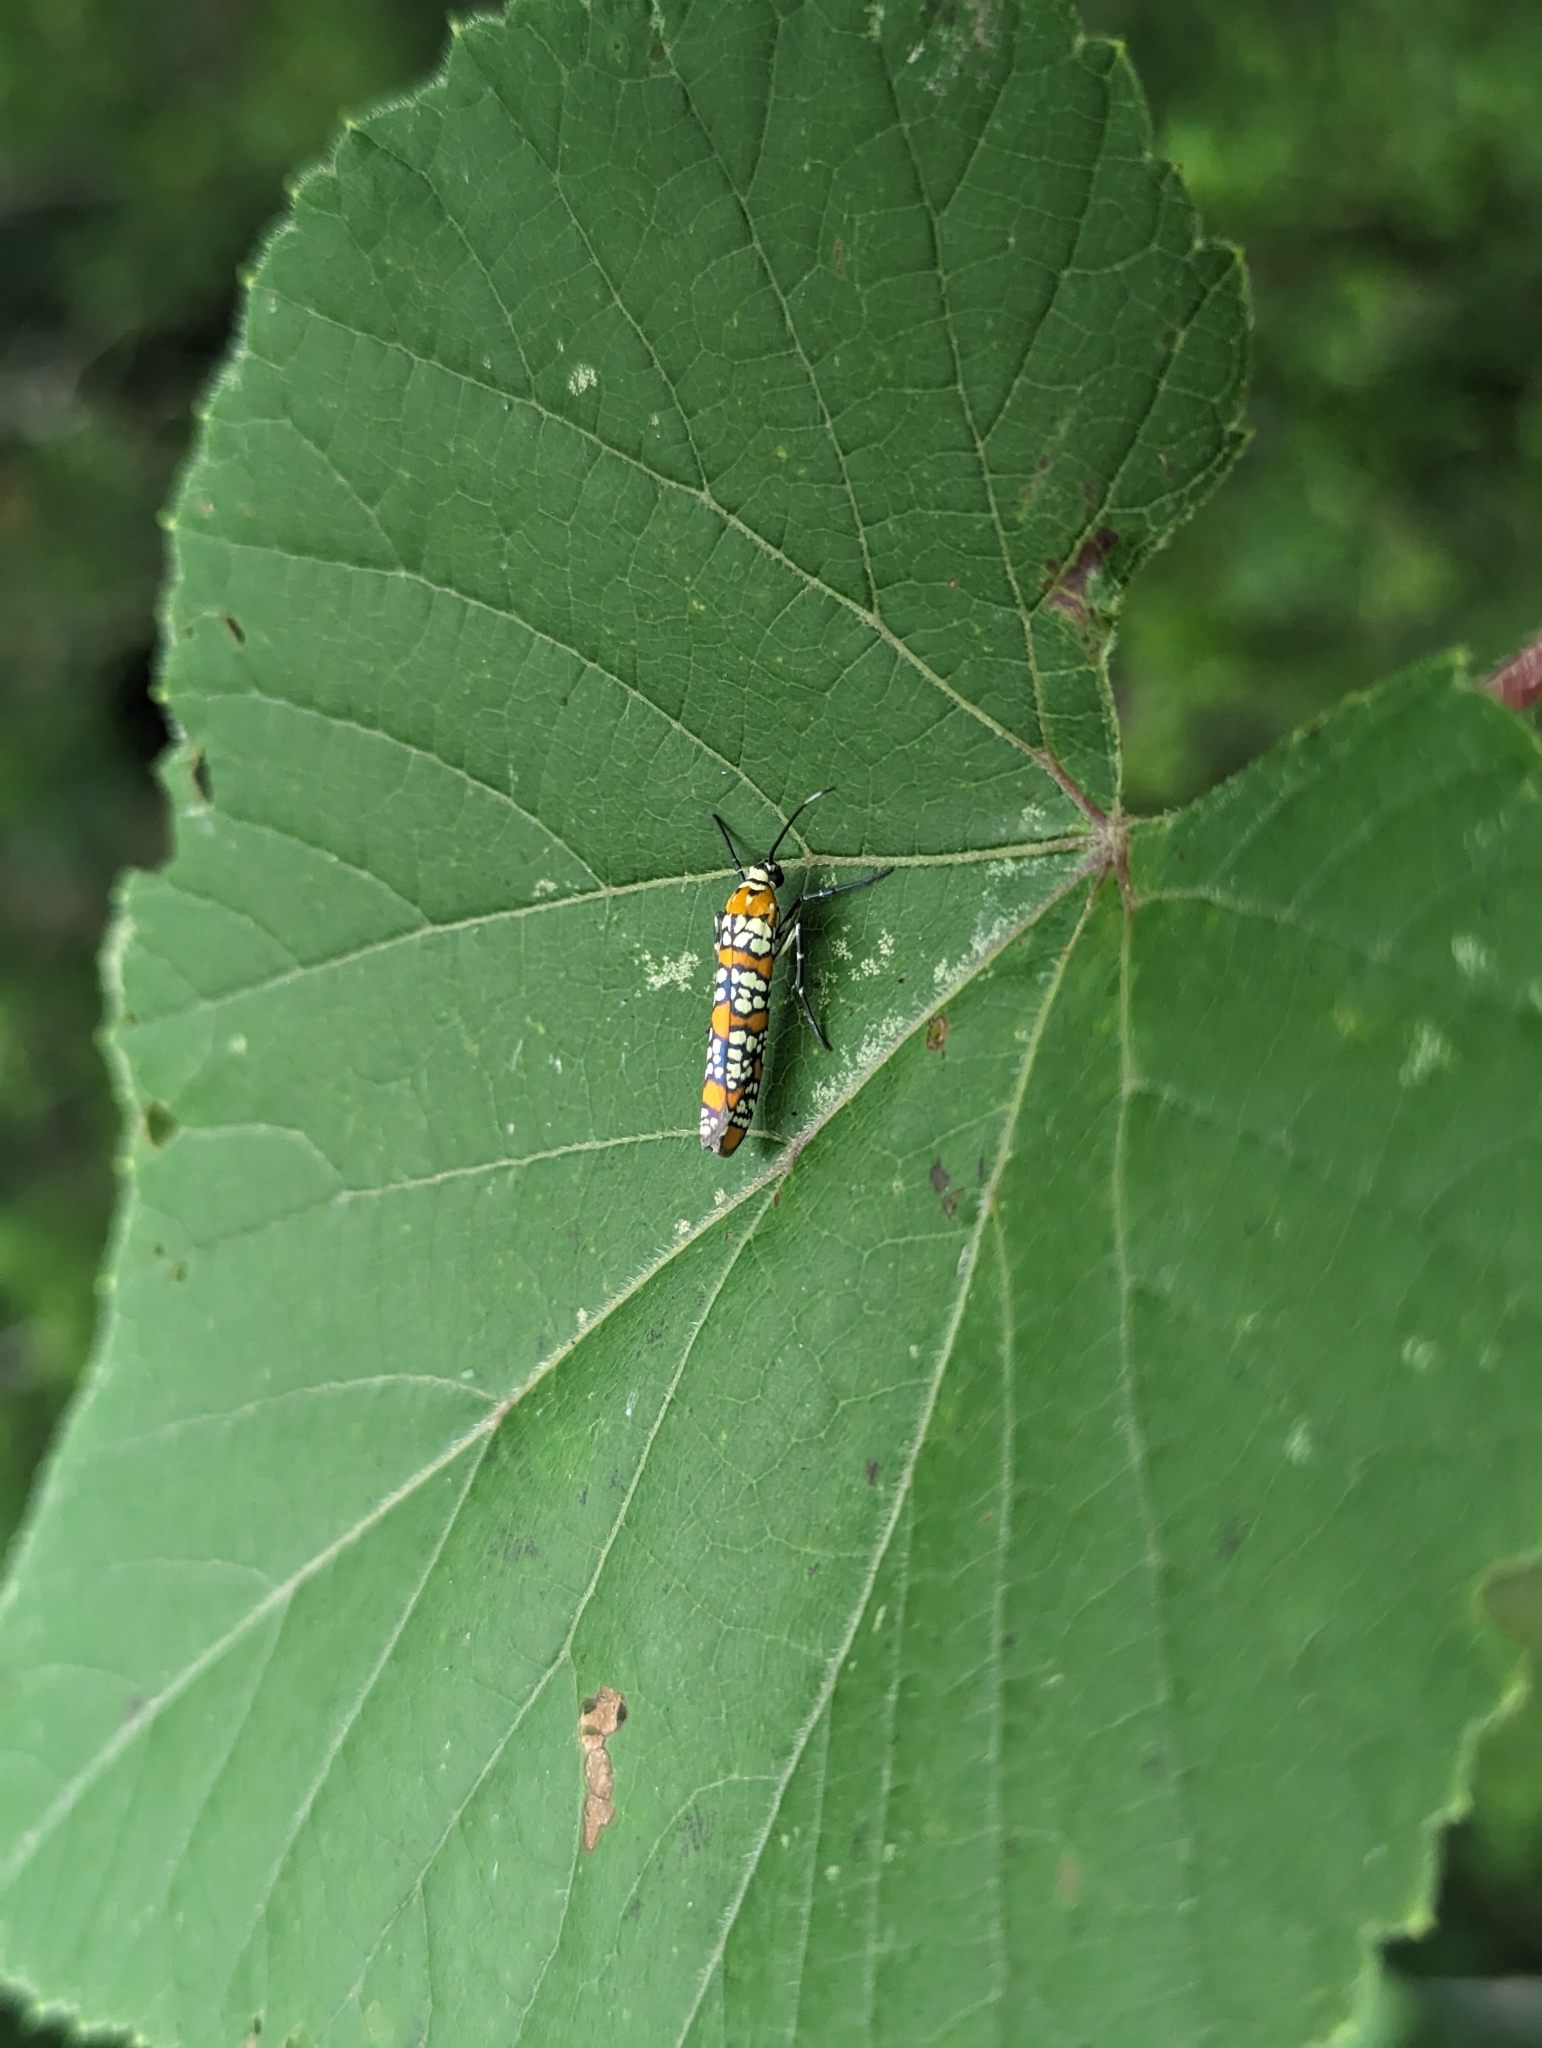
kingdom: Animalia
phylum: Arthropoda
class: Insecta
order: Lepidoptera
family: Attevidae
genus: Atteva
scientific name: Atteva punctella
